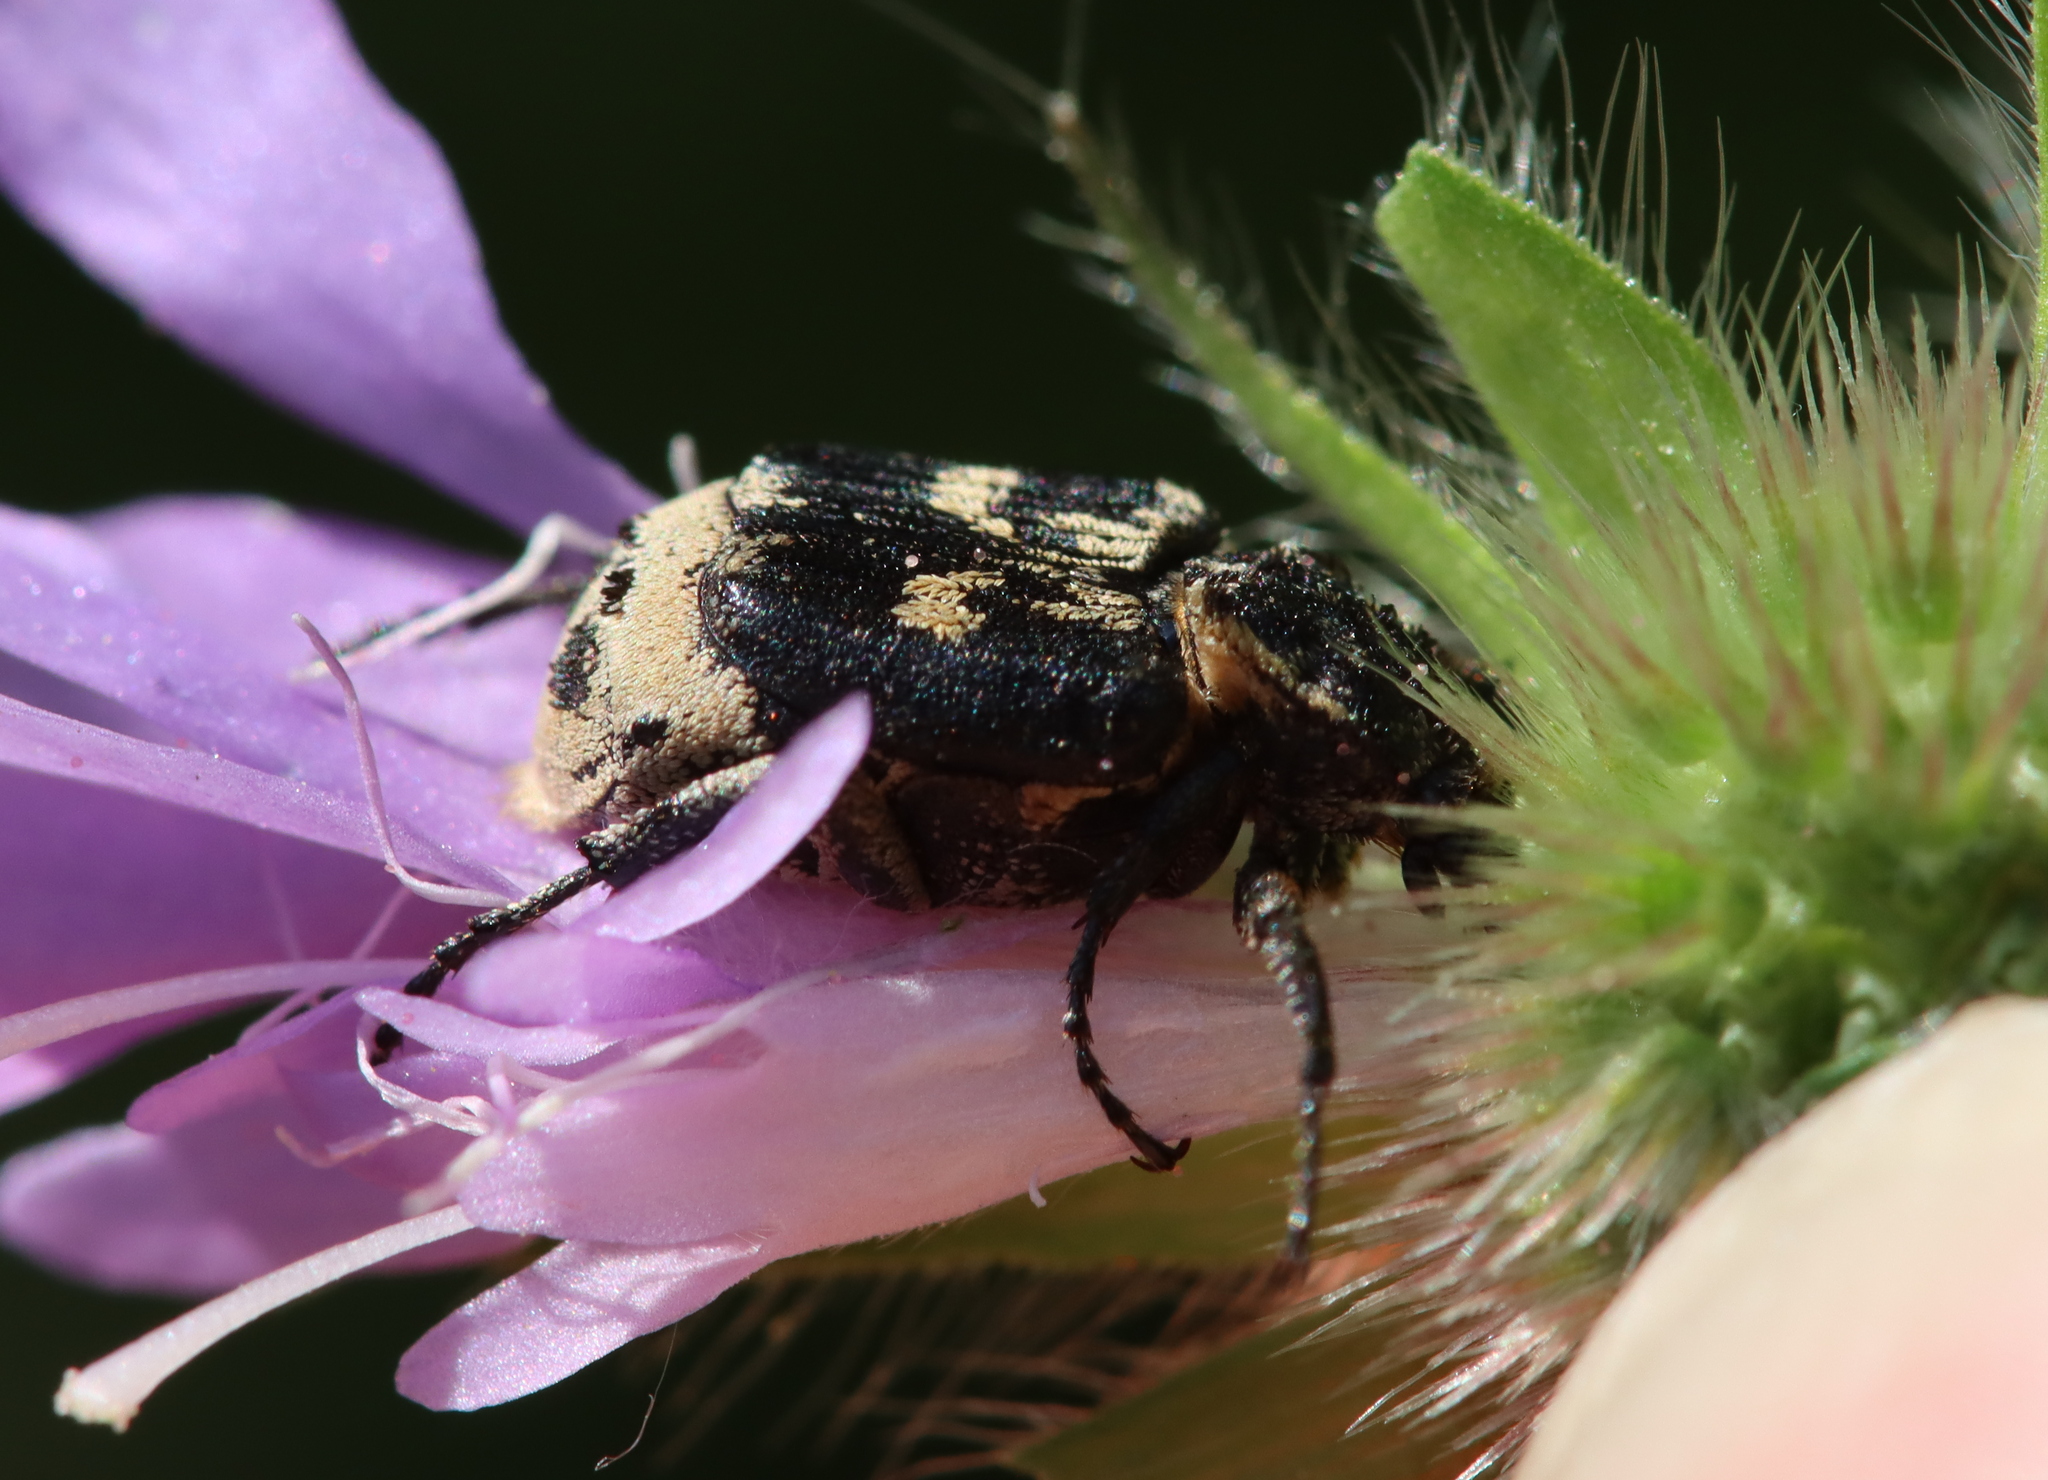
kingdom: Animalia
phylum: Arthropoda
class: Insecta
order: Coleoptera
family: Scarabaeidae
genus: Valgus
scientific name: Valgus hemipterus
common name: Bug flower chafer
